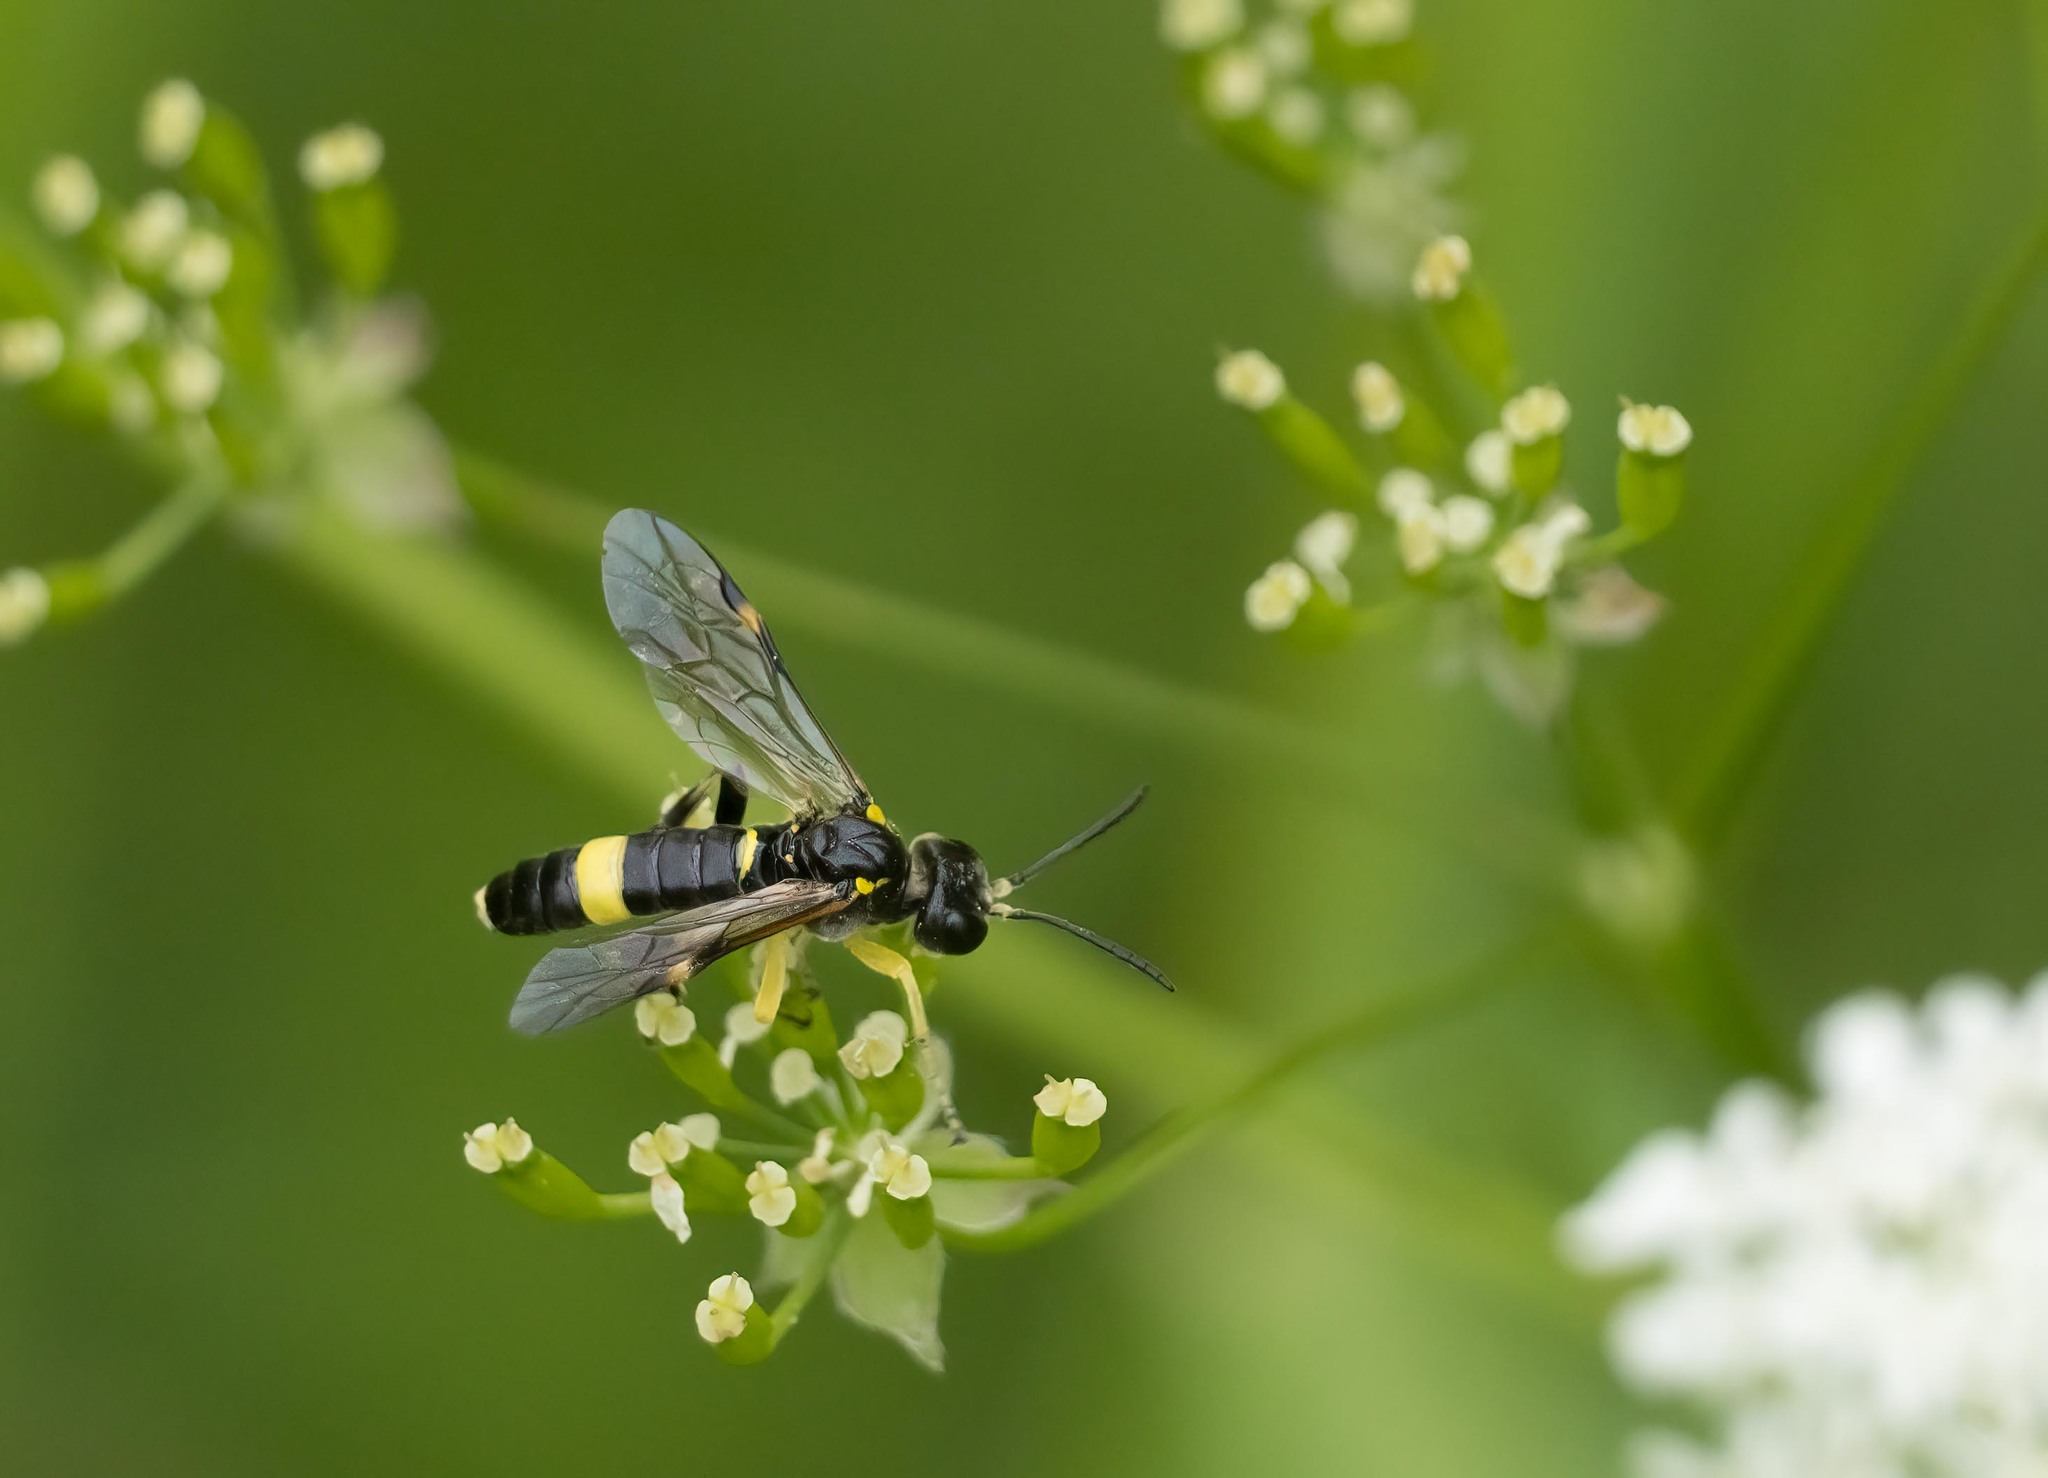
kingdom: Animalia
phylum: Arthropoda
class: Insecta
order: Hymenoptera
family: Tenthredinidae
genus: Tenthredo
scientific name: Tenthredo distinguenda
